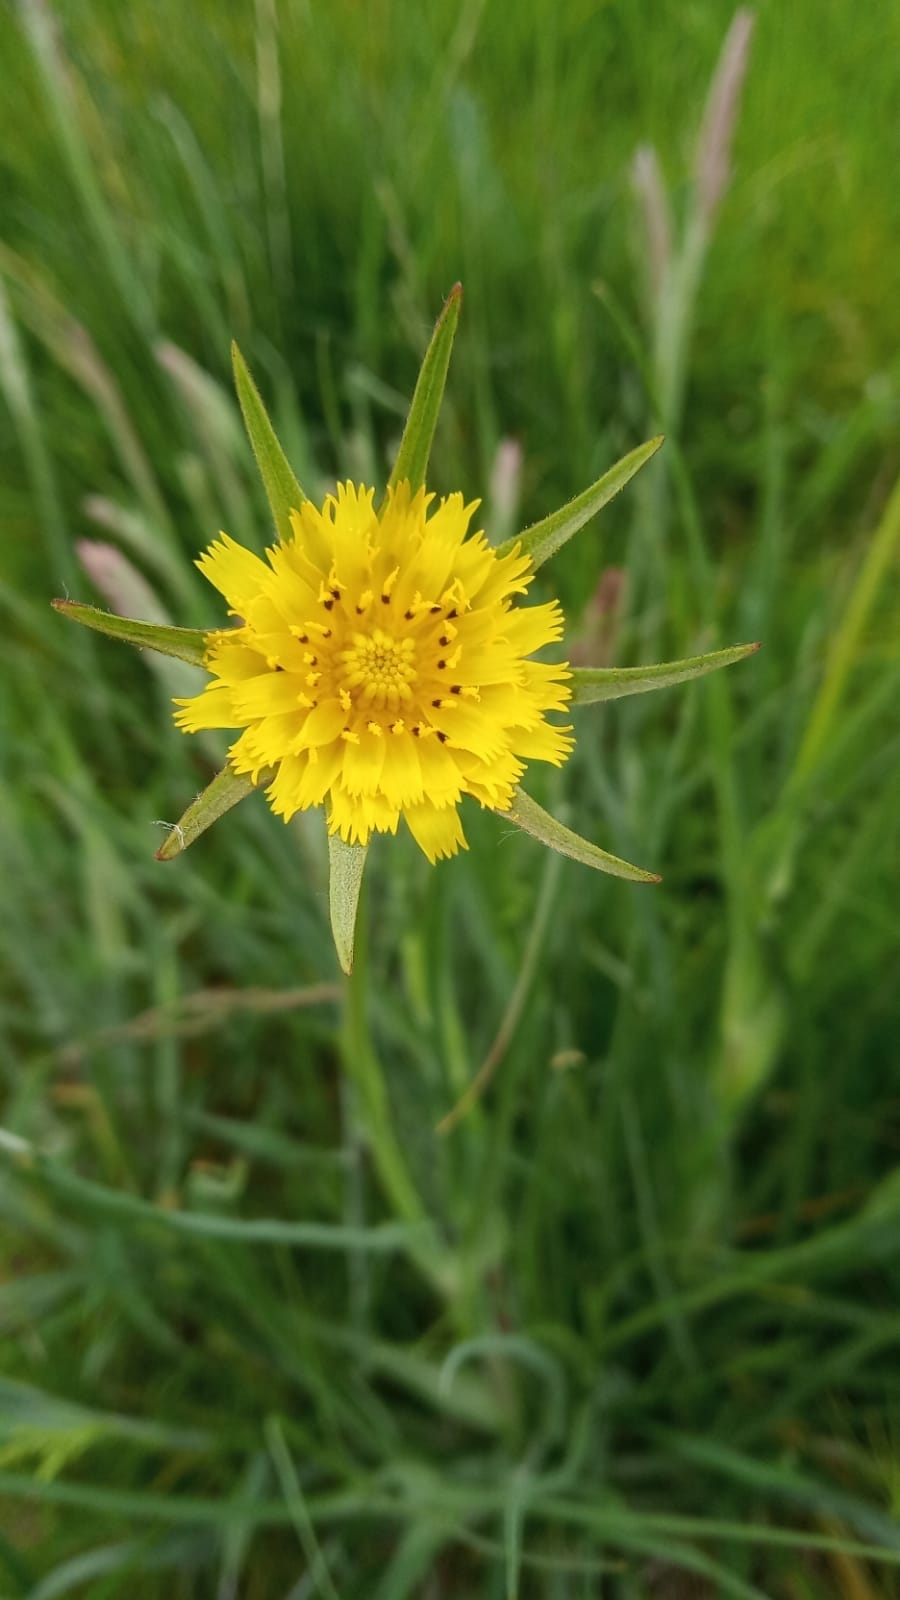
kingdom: Plantae
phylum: Tracheophyta
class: Magnoliopsida
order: Asterales
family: Asteraceae
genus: Tragopogon
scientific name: Tragopogon pratensis
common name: Goat's-beard
